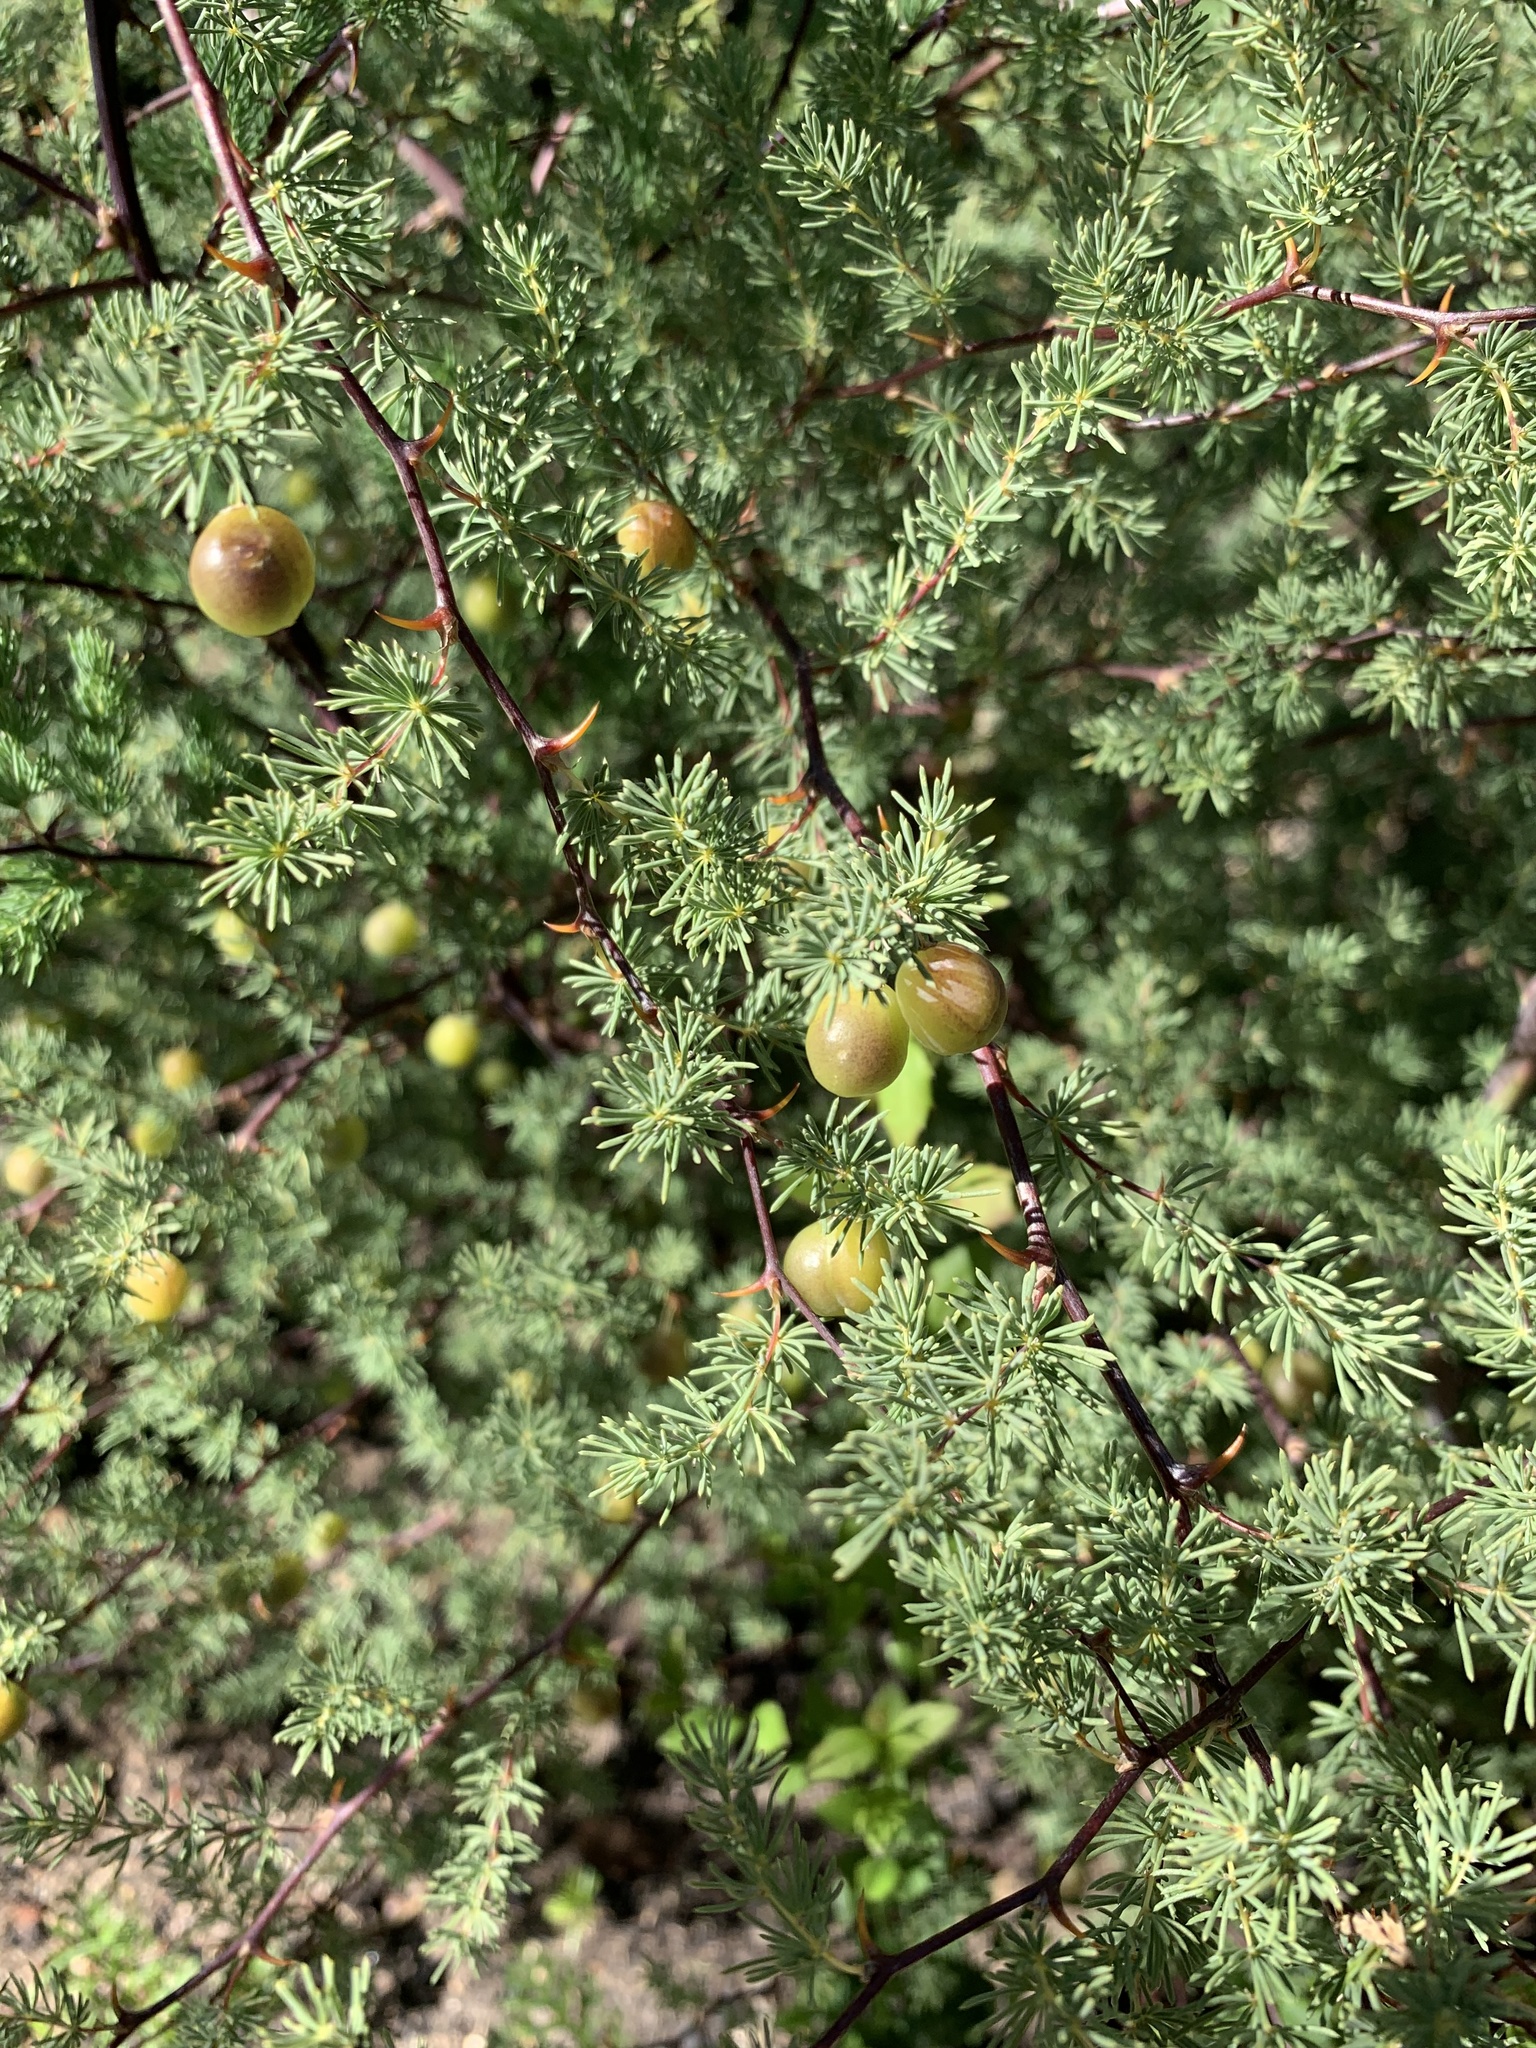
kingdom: Plantae
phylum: Tracheophyta
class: Liliopsida
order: Asparagales
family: Asparagaceae
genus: Asparagus
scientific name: Asparagus rubicundus
